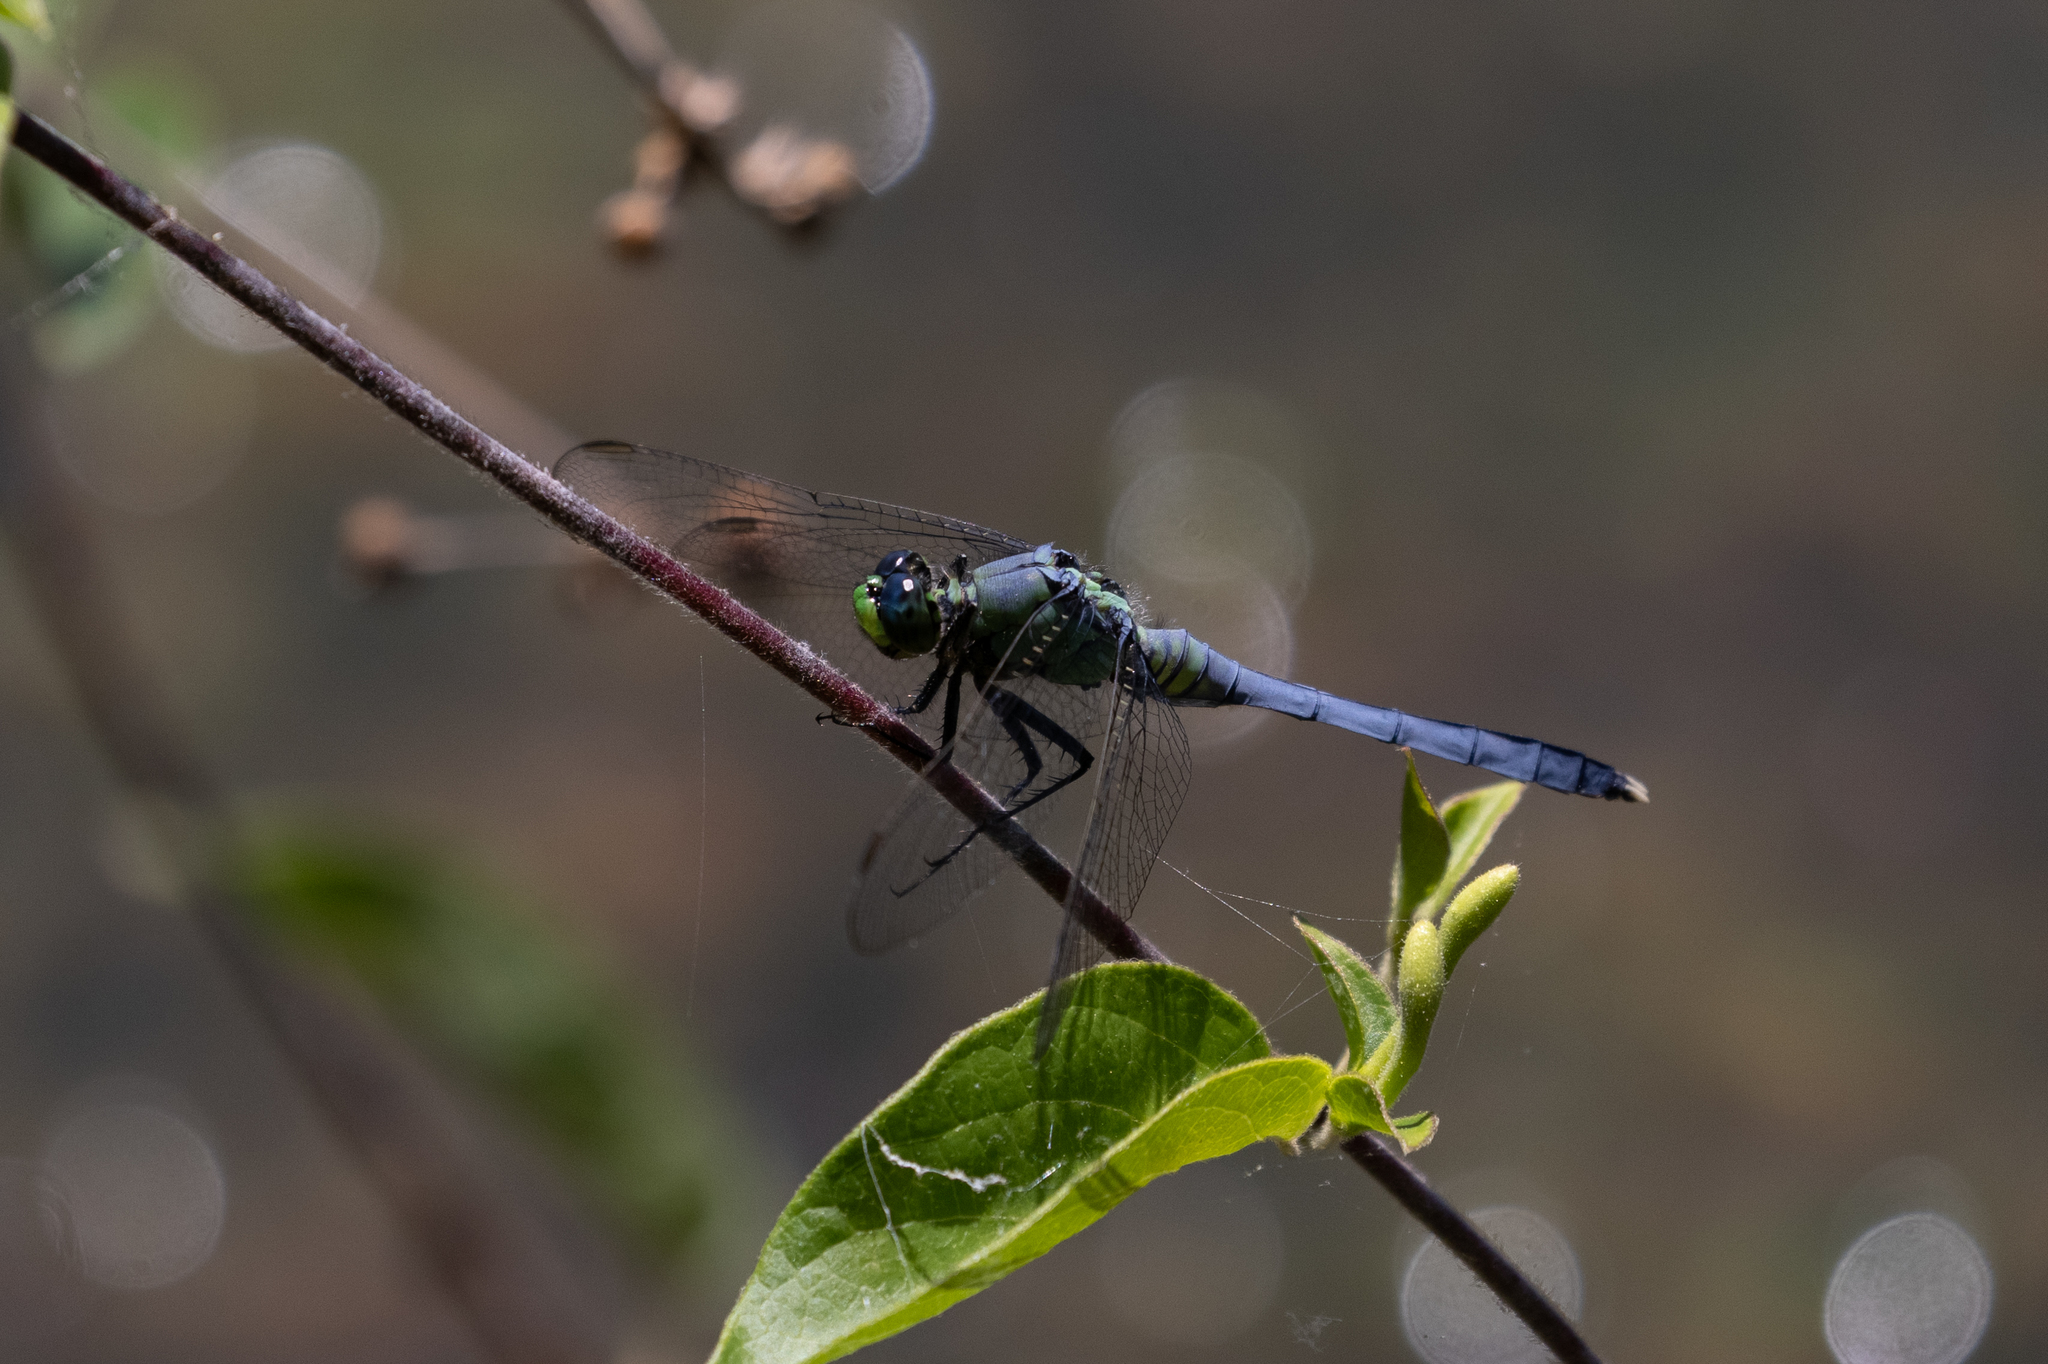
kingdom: Animalia
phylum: Arthropoda
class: Insecta
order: Odonata
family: Libellulidae
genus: Erythemis
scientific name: Erythemis simplicicollis
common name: Eastern pondhawk
